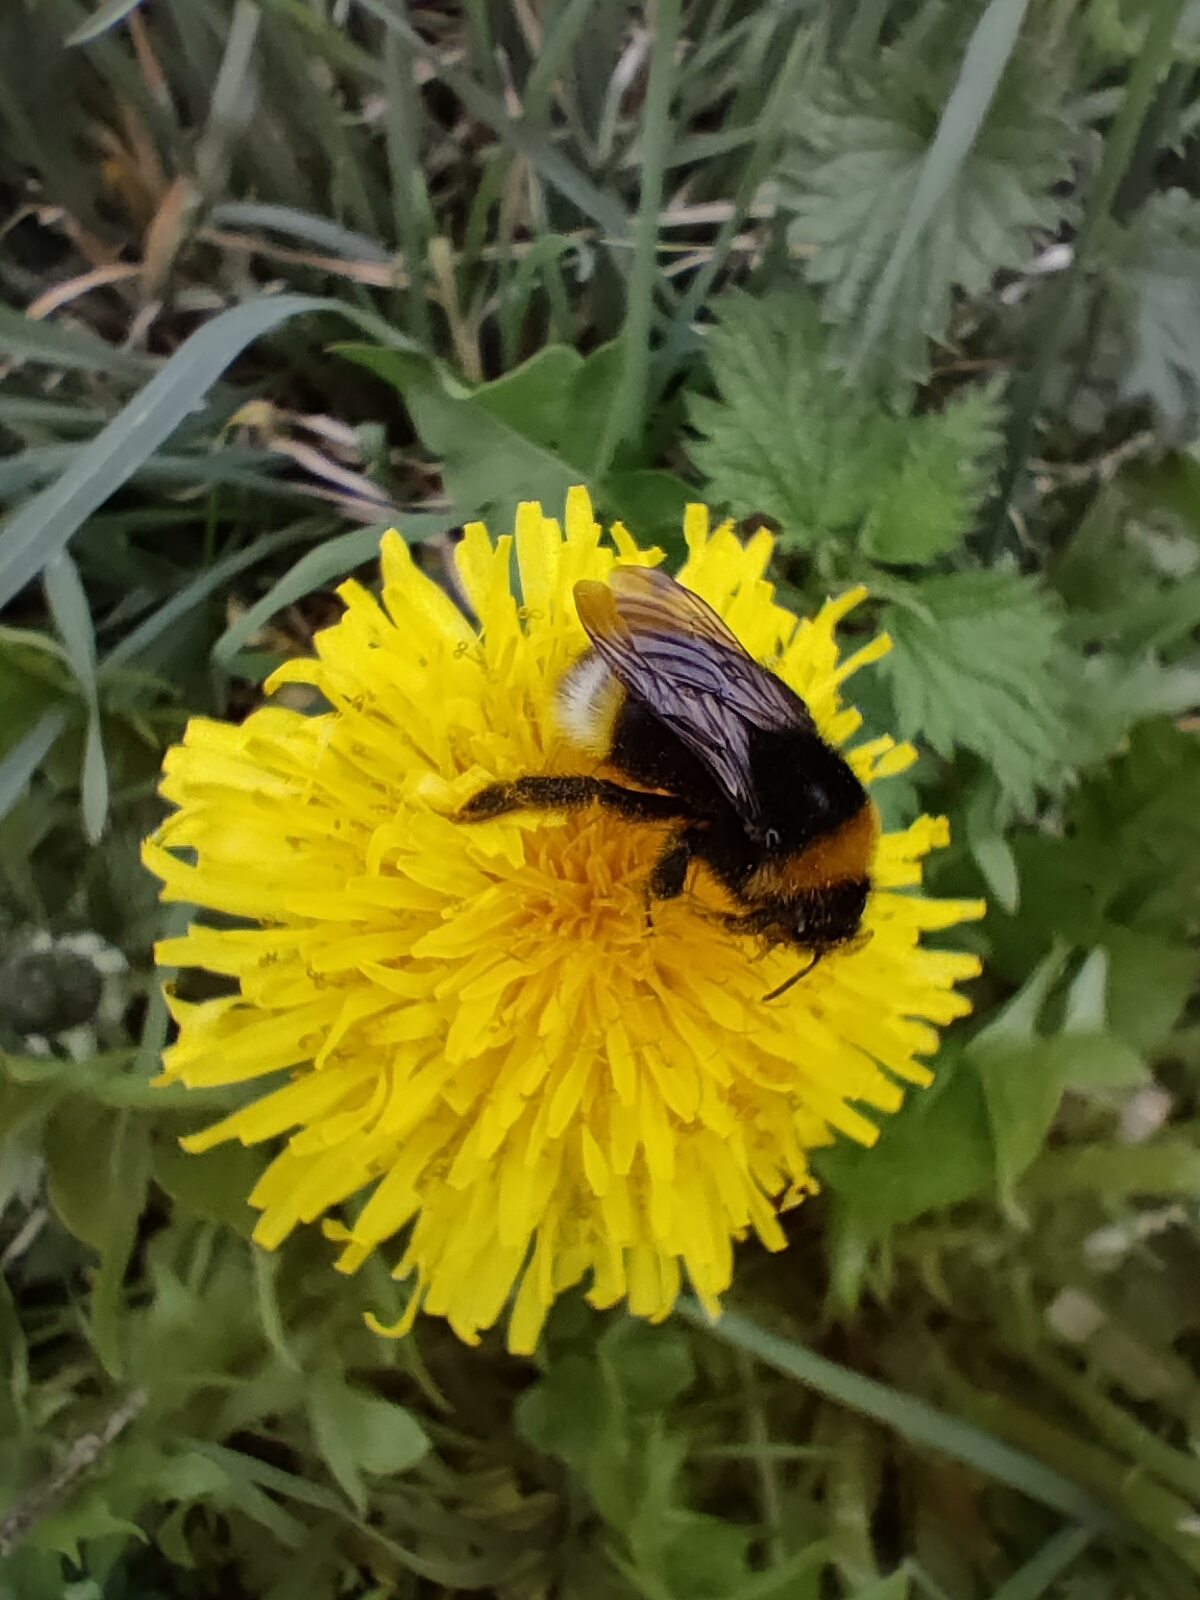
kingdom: Animalia
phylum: Arthropoda
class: Insecta
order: Hymenoptera
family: Apidae
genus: Bombus
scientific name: Bombus vestalis
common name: Vestal cuckoo bee
